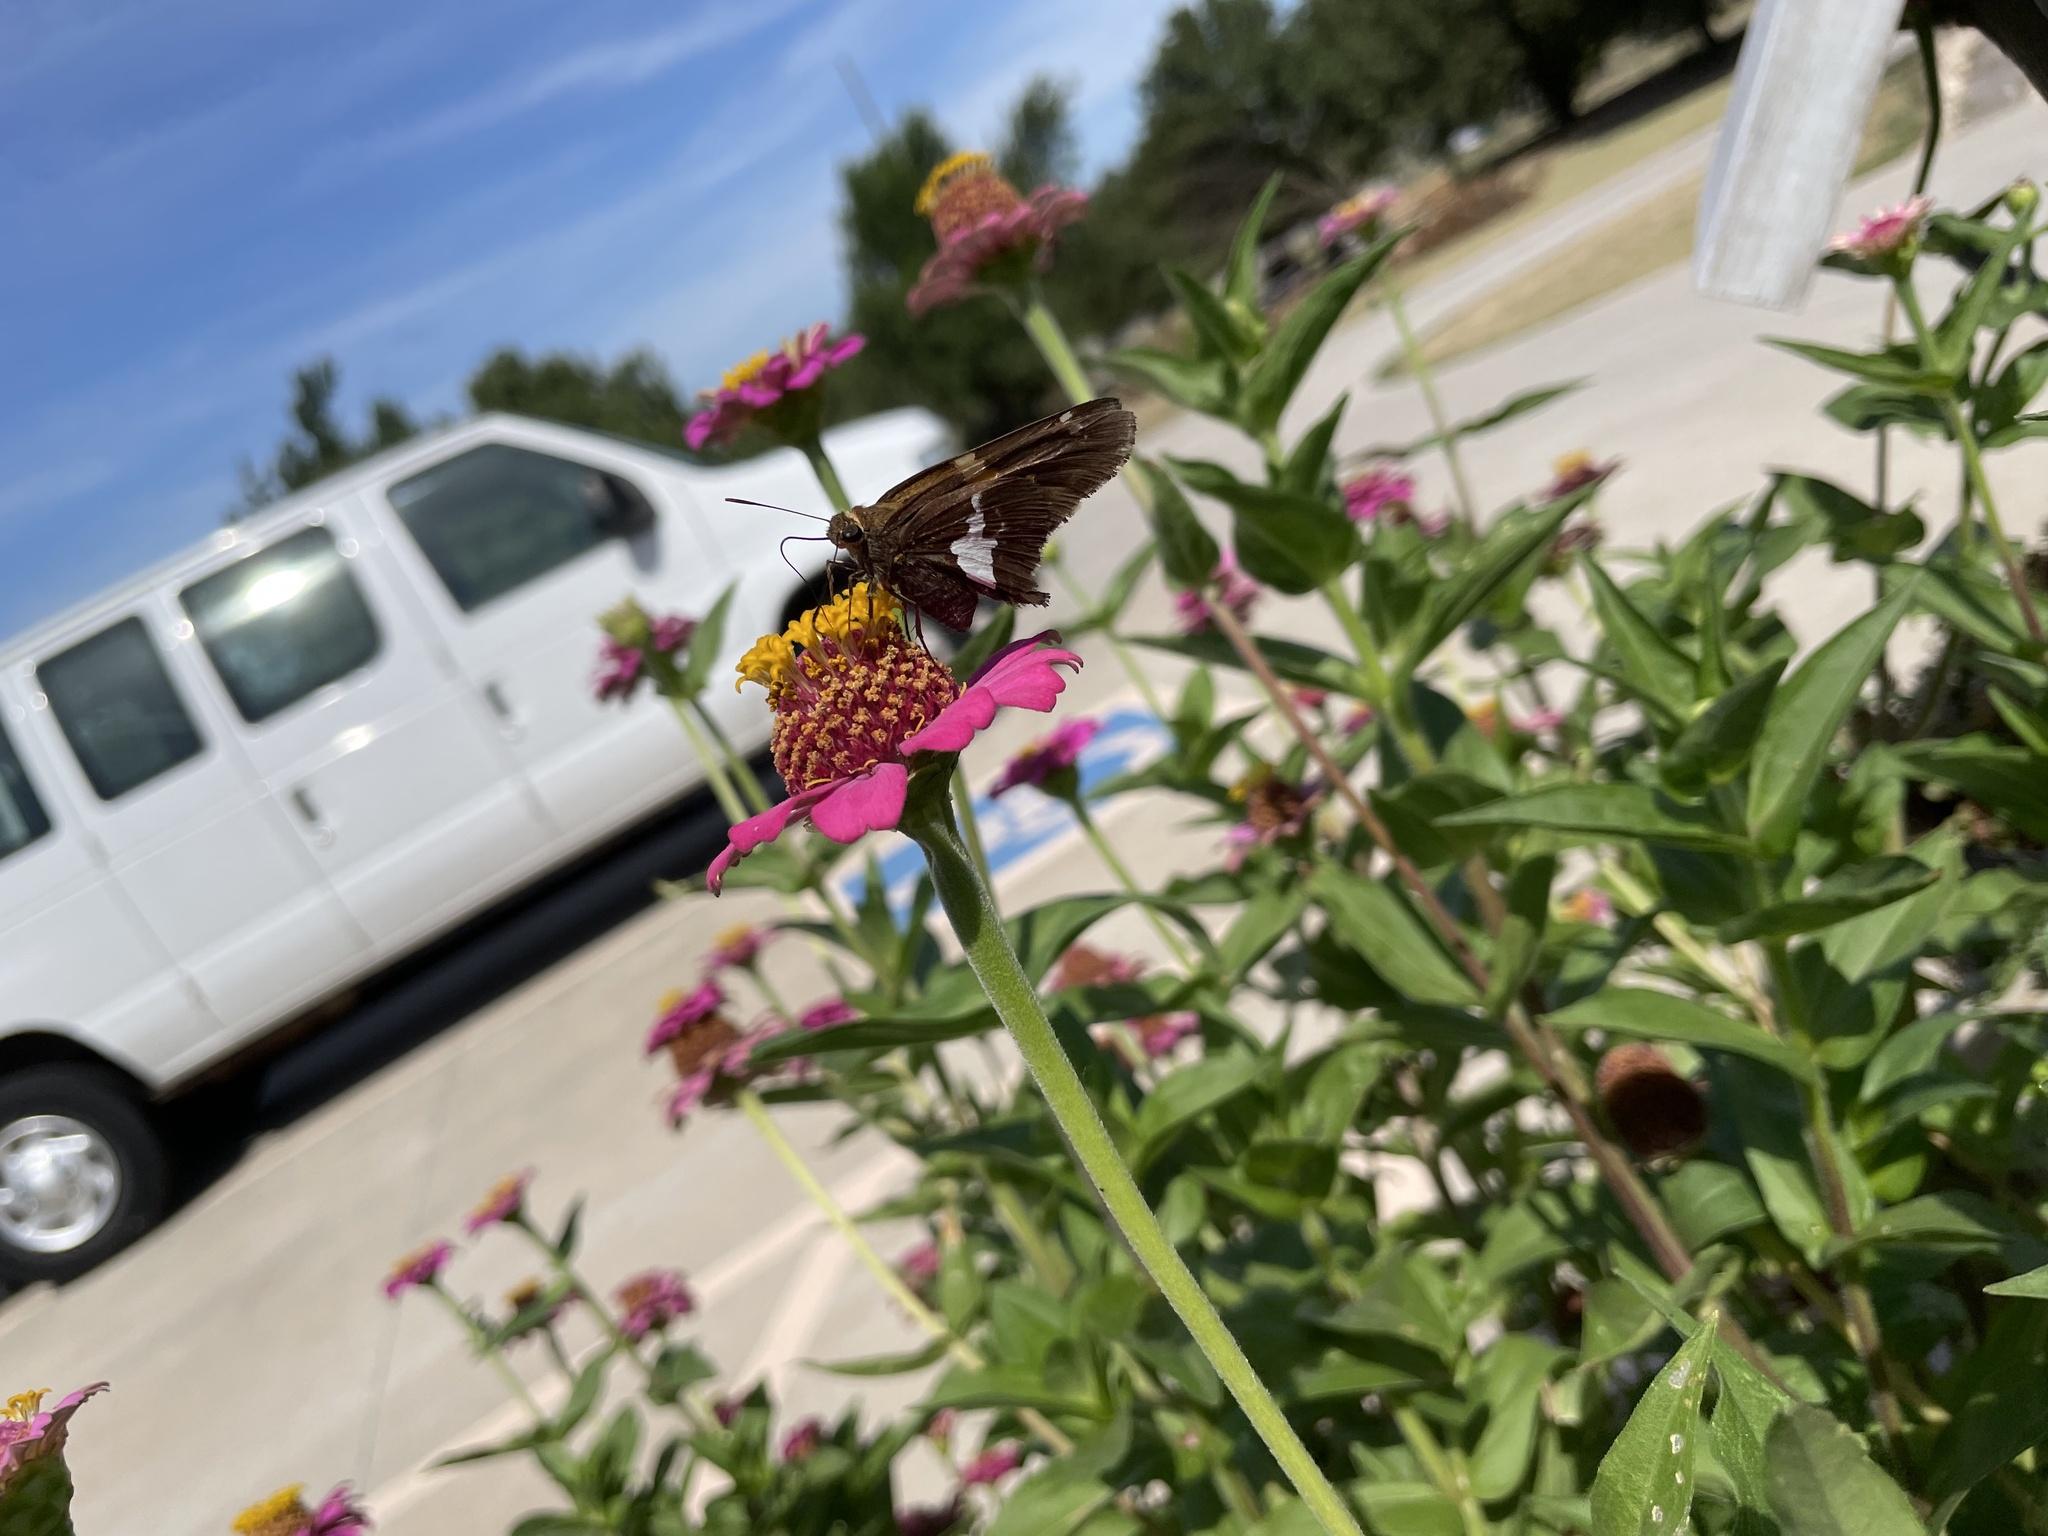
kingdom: Animalia
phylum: Arthropoda
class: Insecta
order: Lepidoptera
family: Hesperiidae
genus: Epargyreus
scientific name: Epargyreus clarus
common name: Silver-spotted skipper
